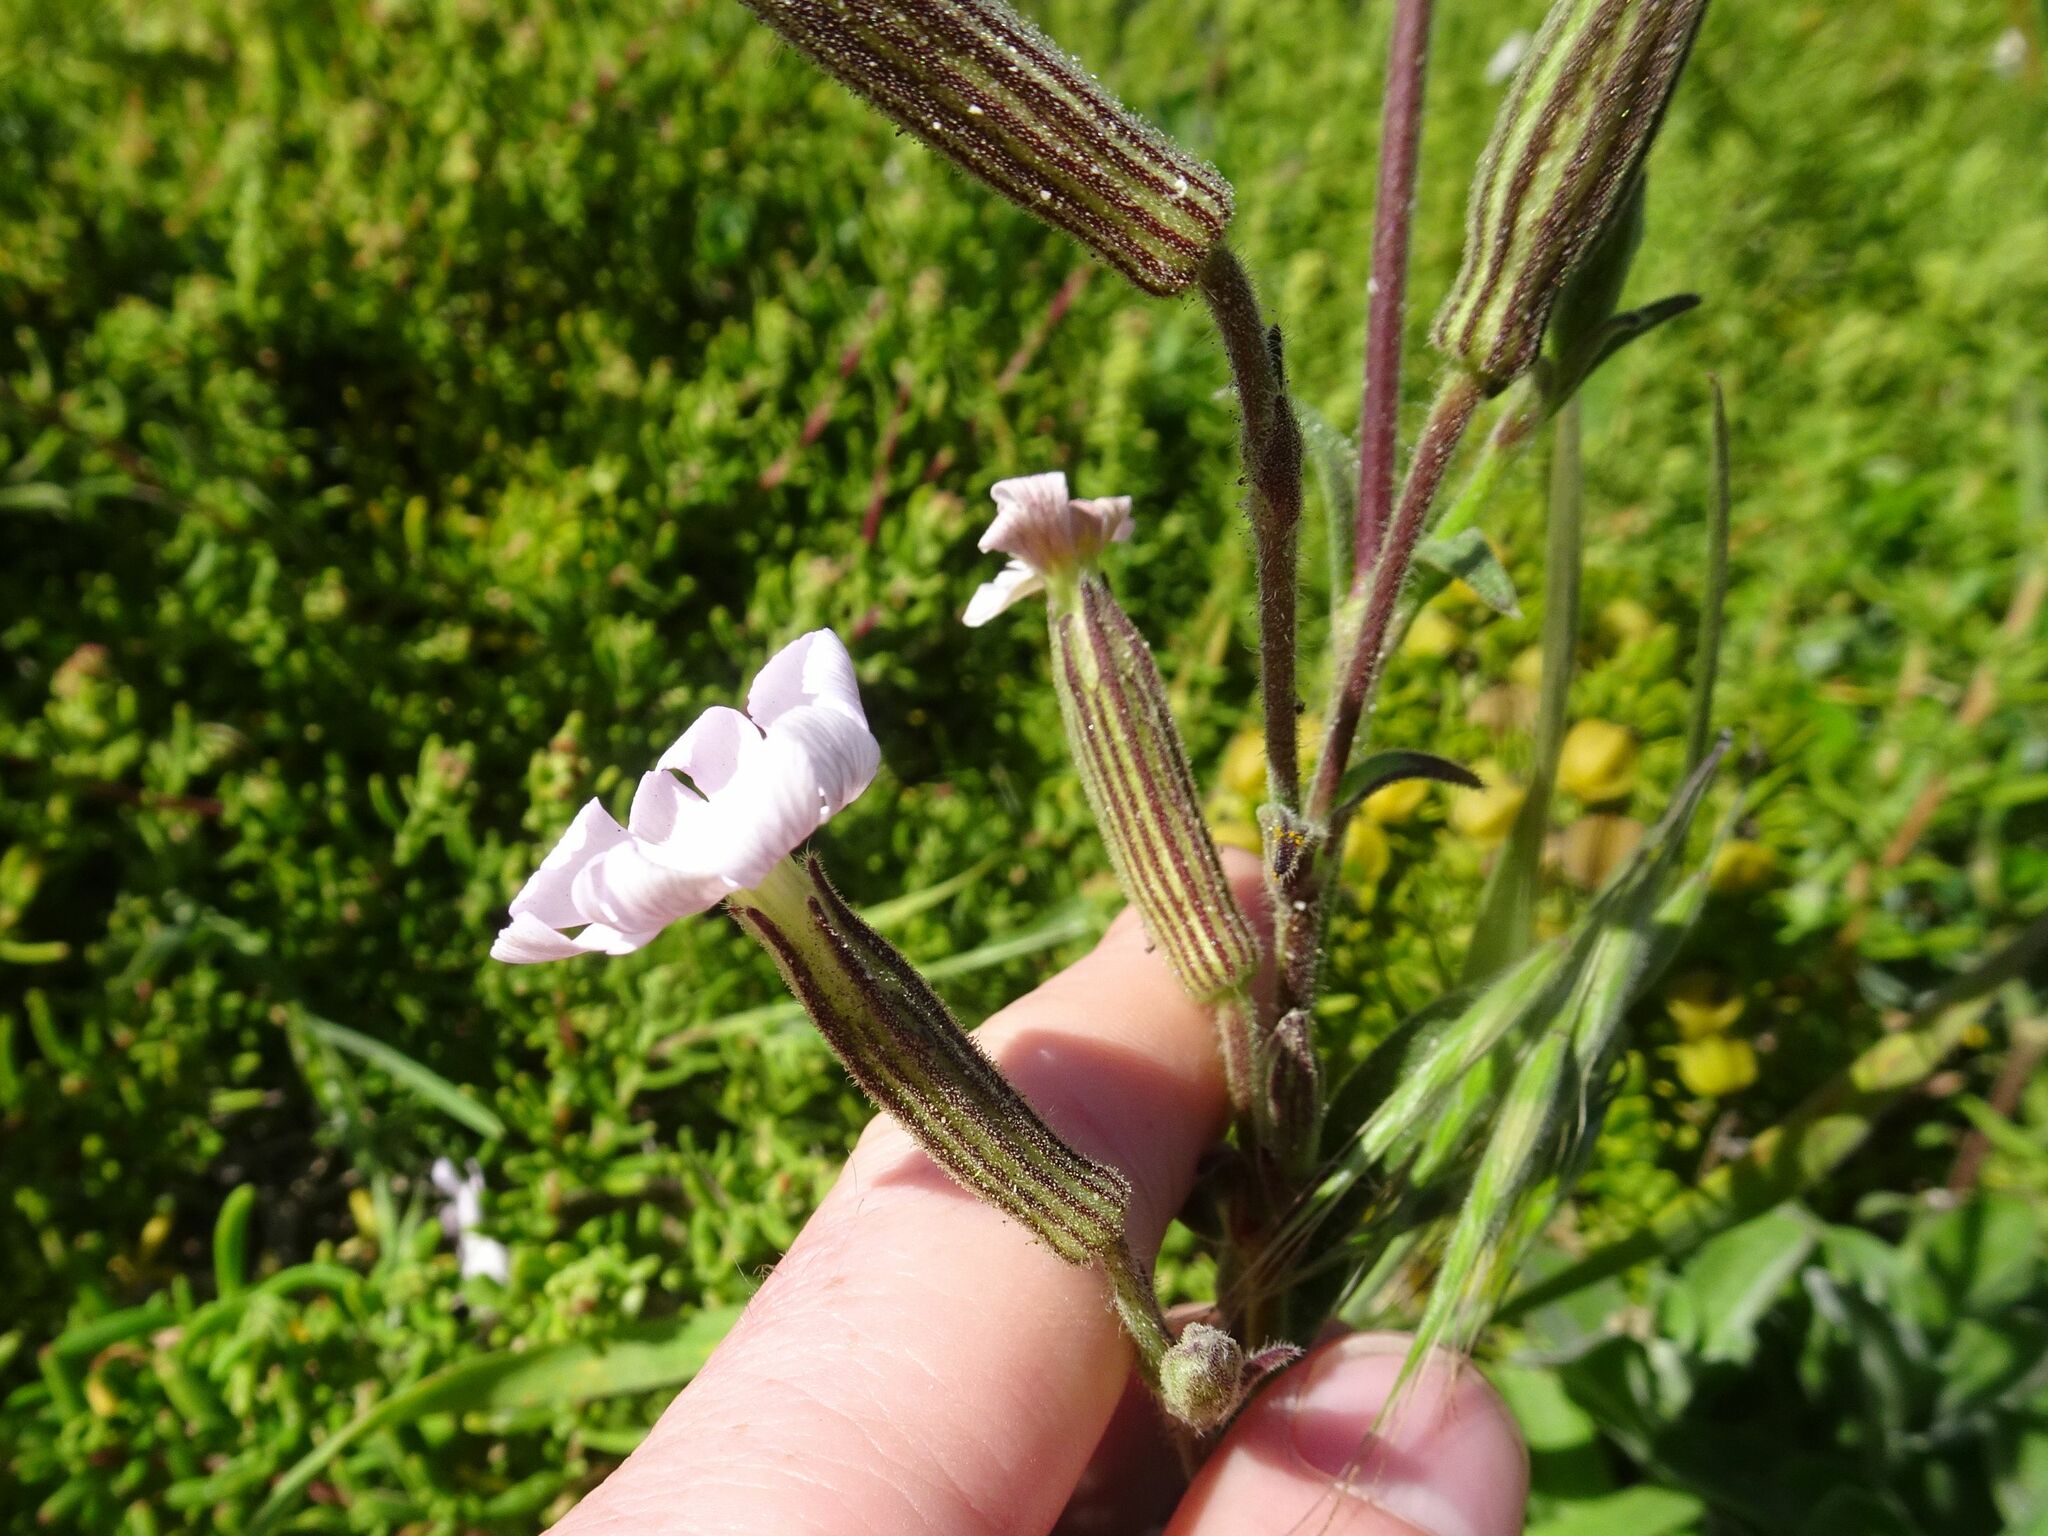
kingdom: Plantae
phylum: Tracheophyta
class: Magnoliopsida
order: Caryophyllales
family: Caryophyllaceae
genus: Silene
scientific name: Silene undulata
